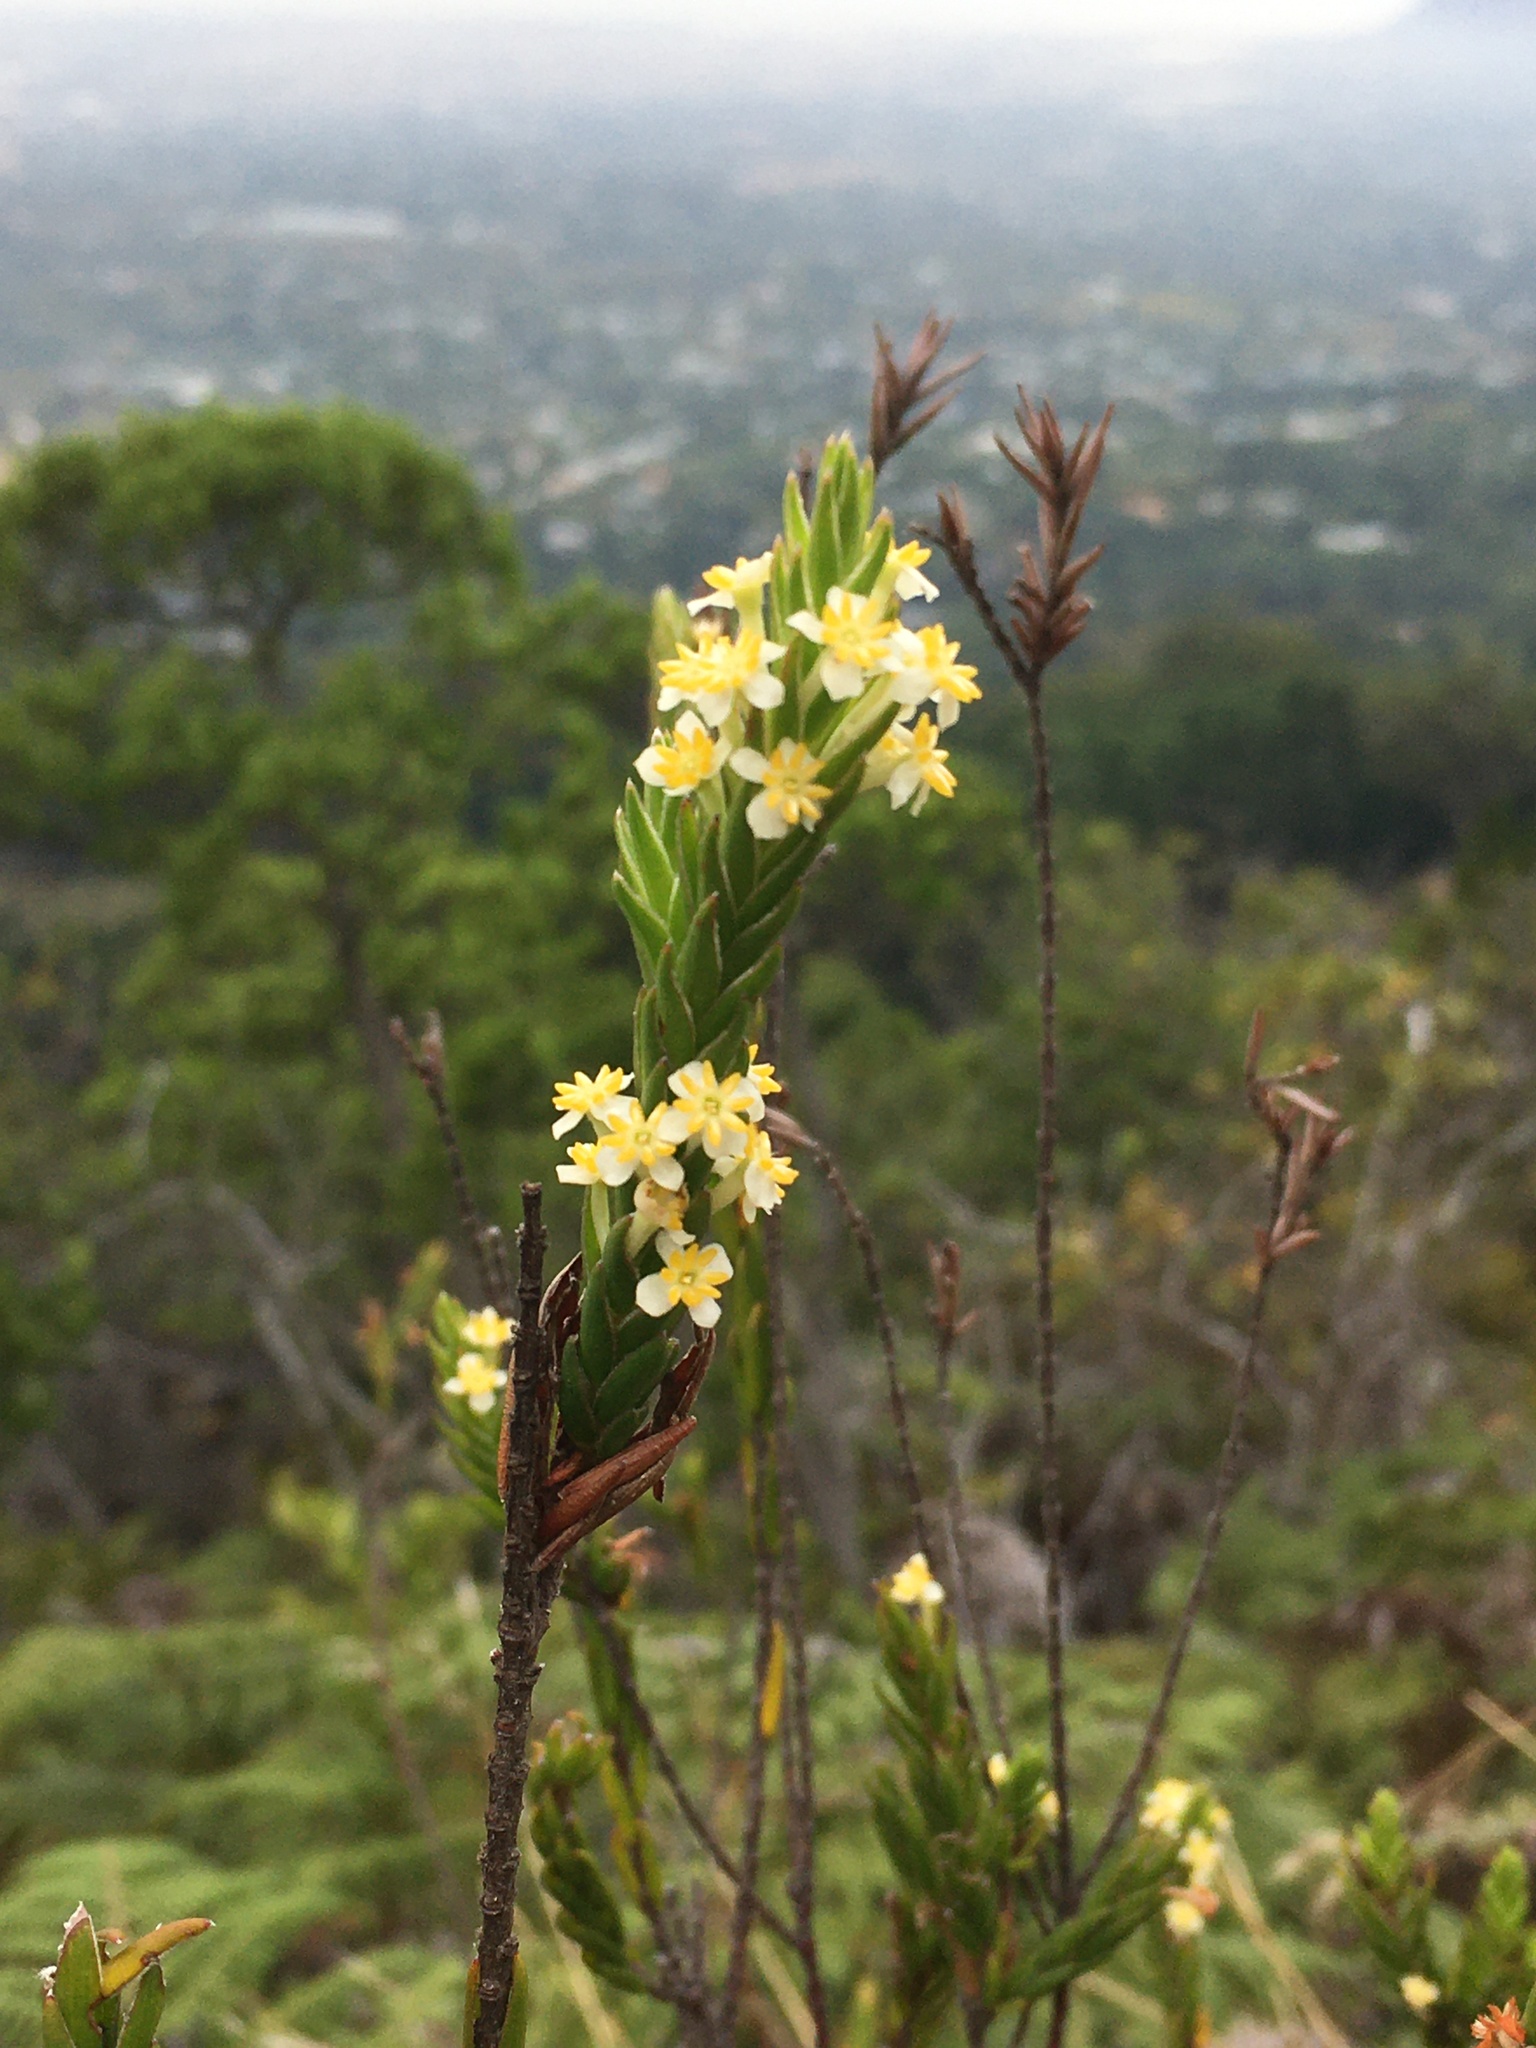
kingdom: Plantae
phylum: Tracheophyta
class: Magnoliopsida
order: Malvales
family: Thymelaeaceae
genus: Struthiola
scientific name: Struthiola ciliata
